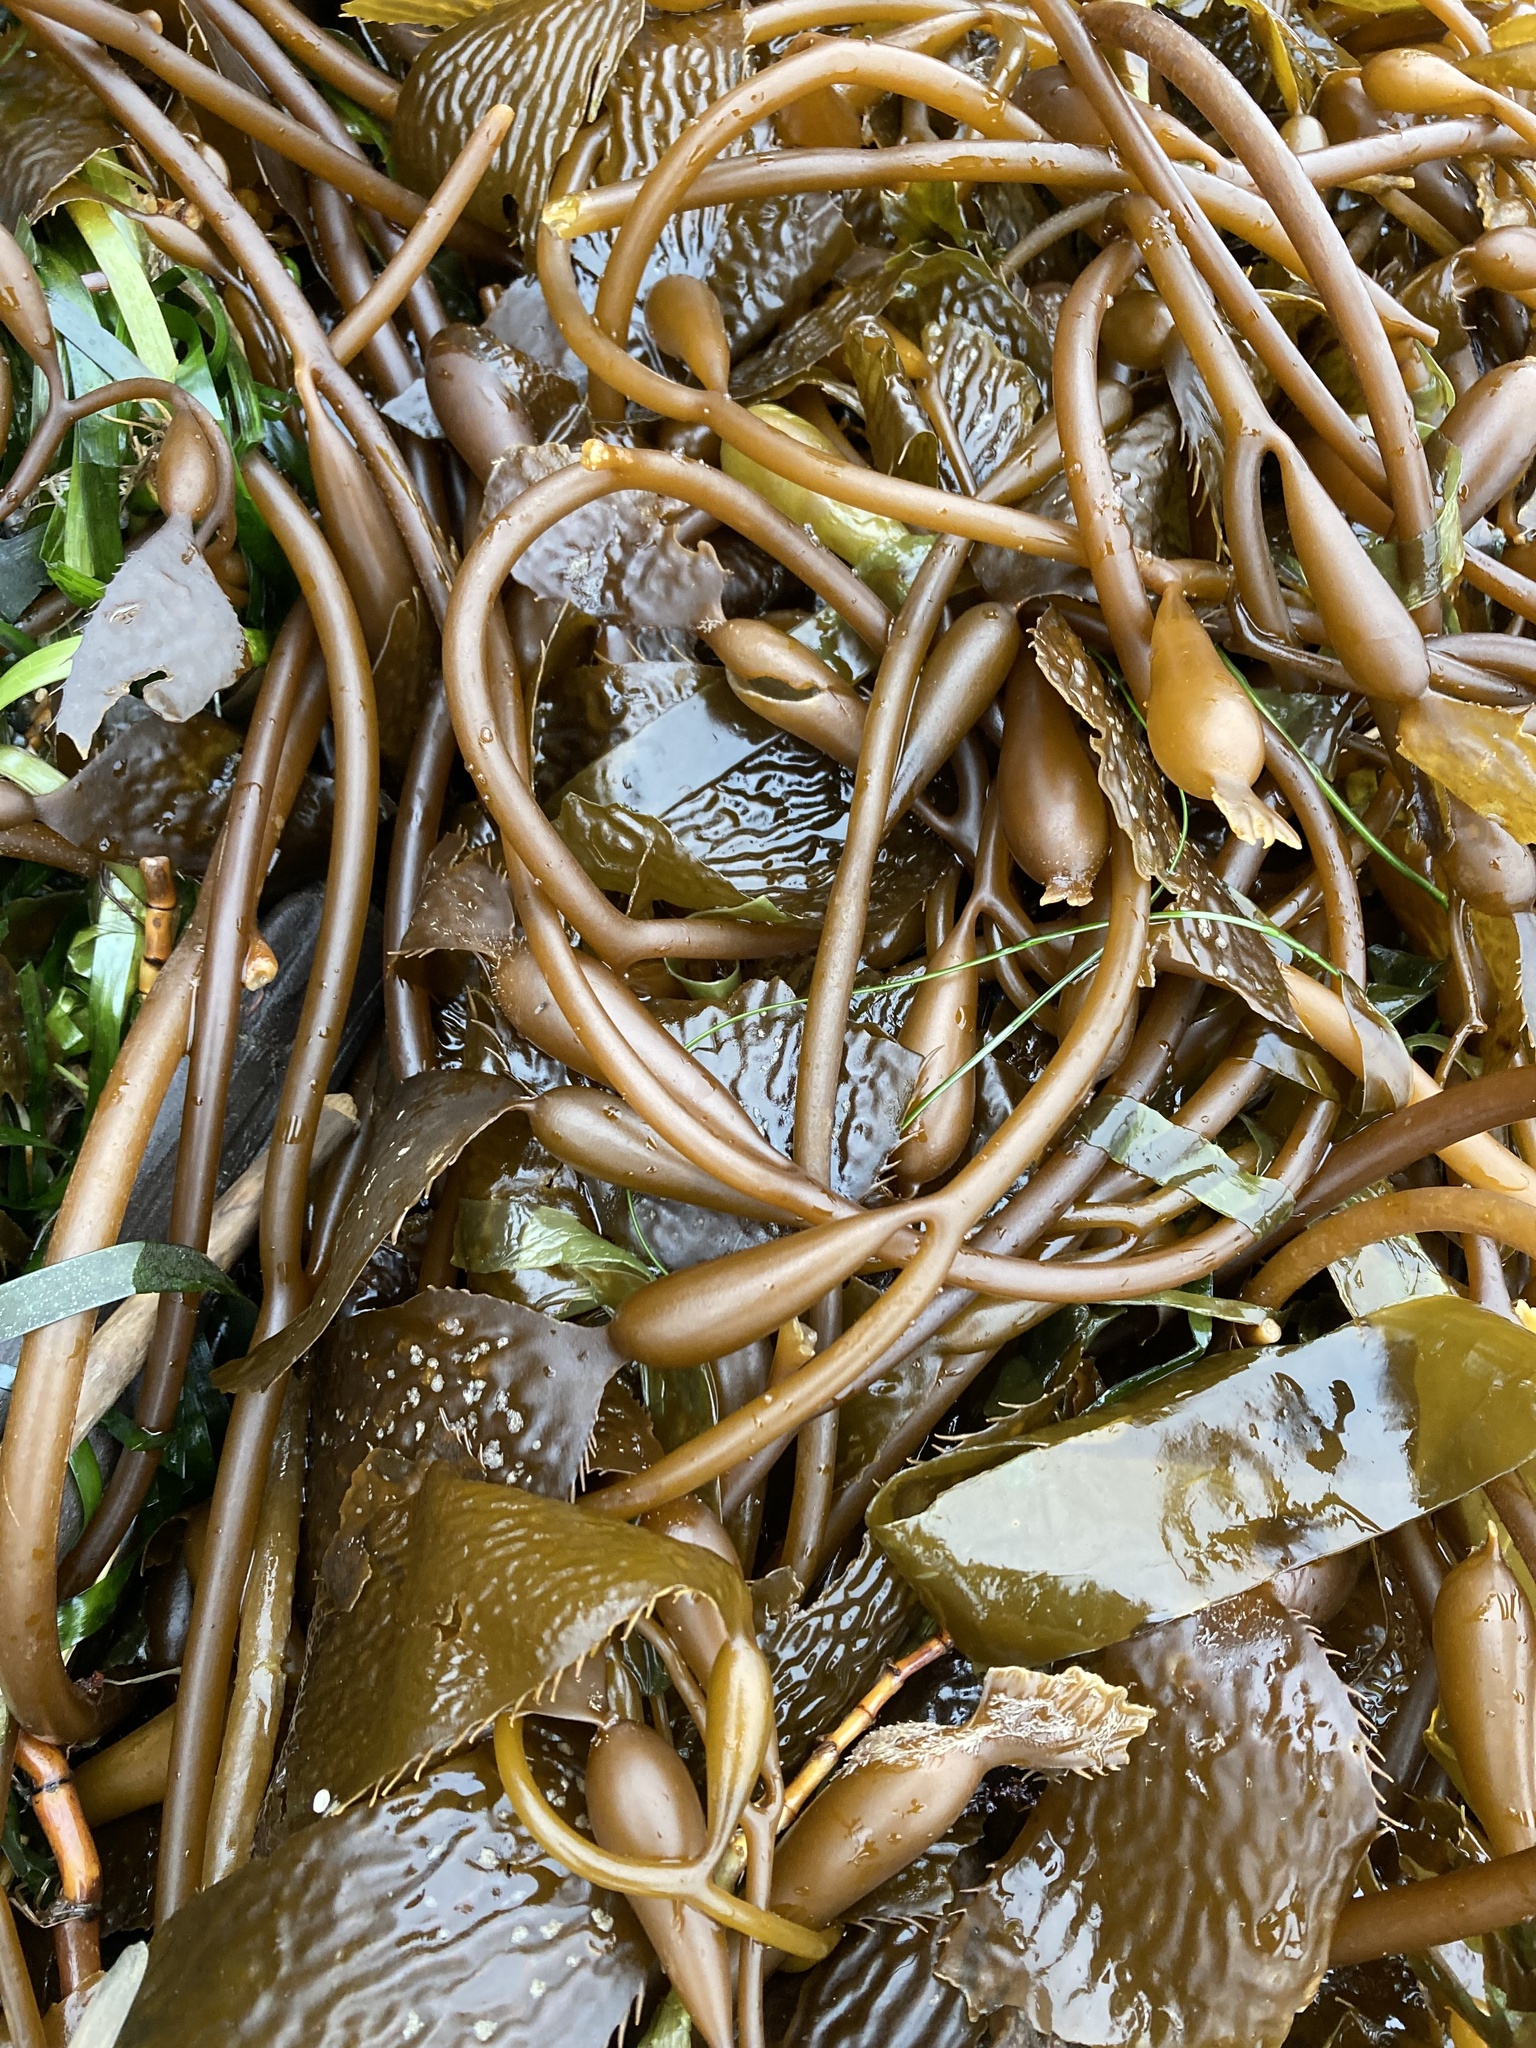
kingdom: Chromista
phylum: Ochrophyta
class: Phaeophyceae
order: Laminariales
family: Laminariaceae
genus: Macrocystis
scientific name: Macrocystis pyrifera
